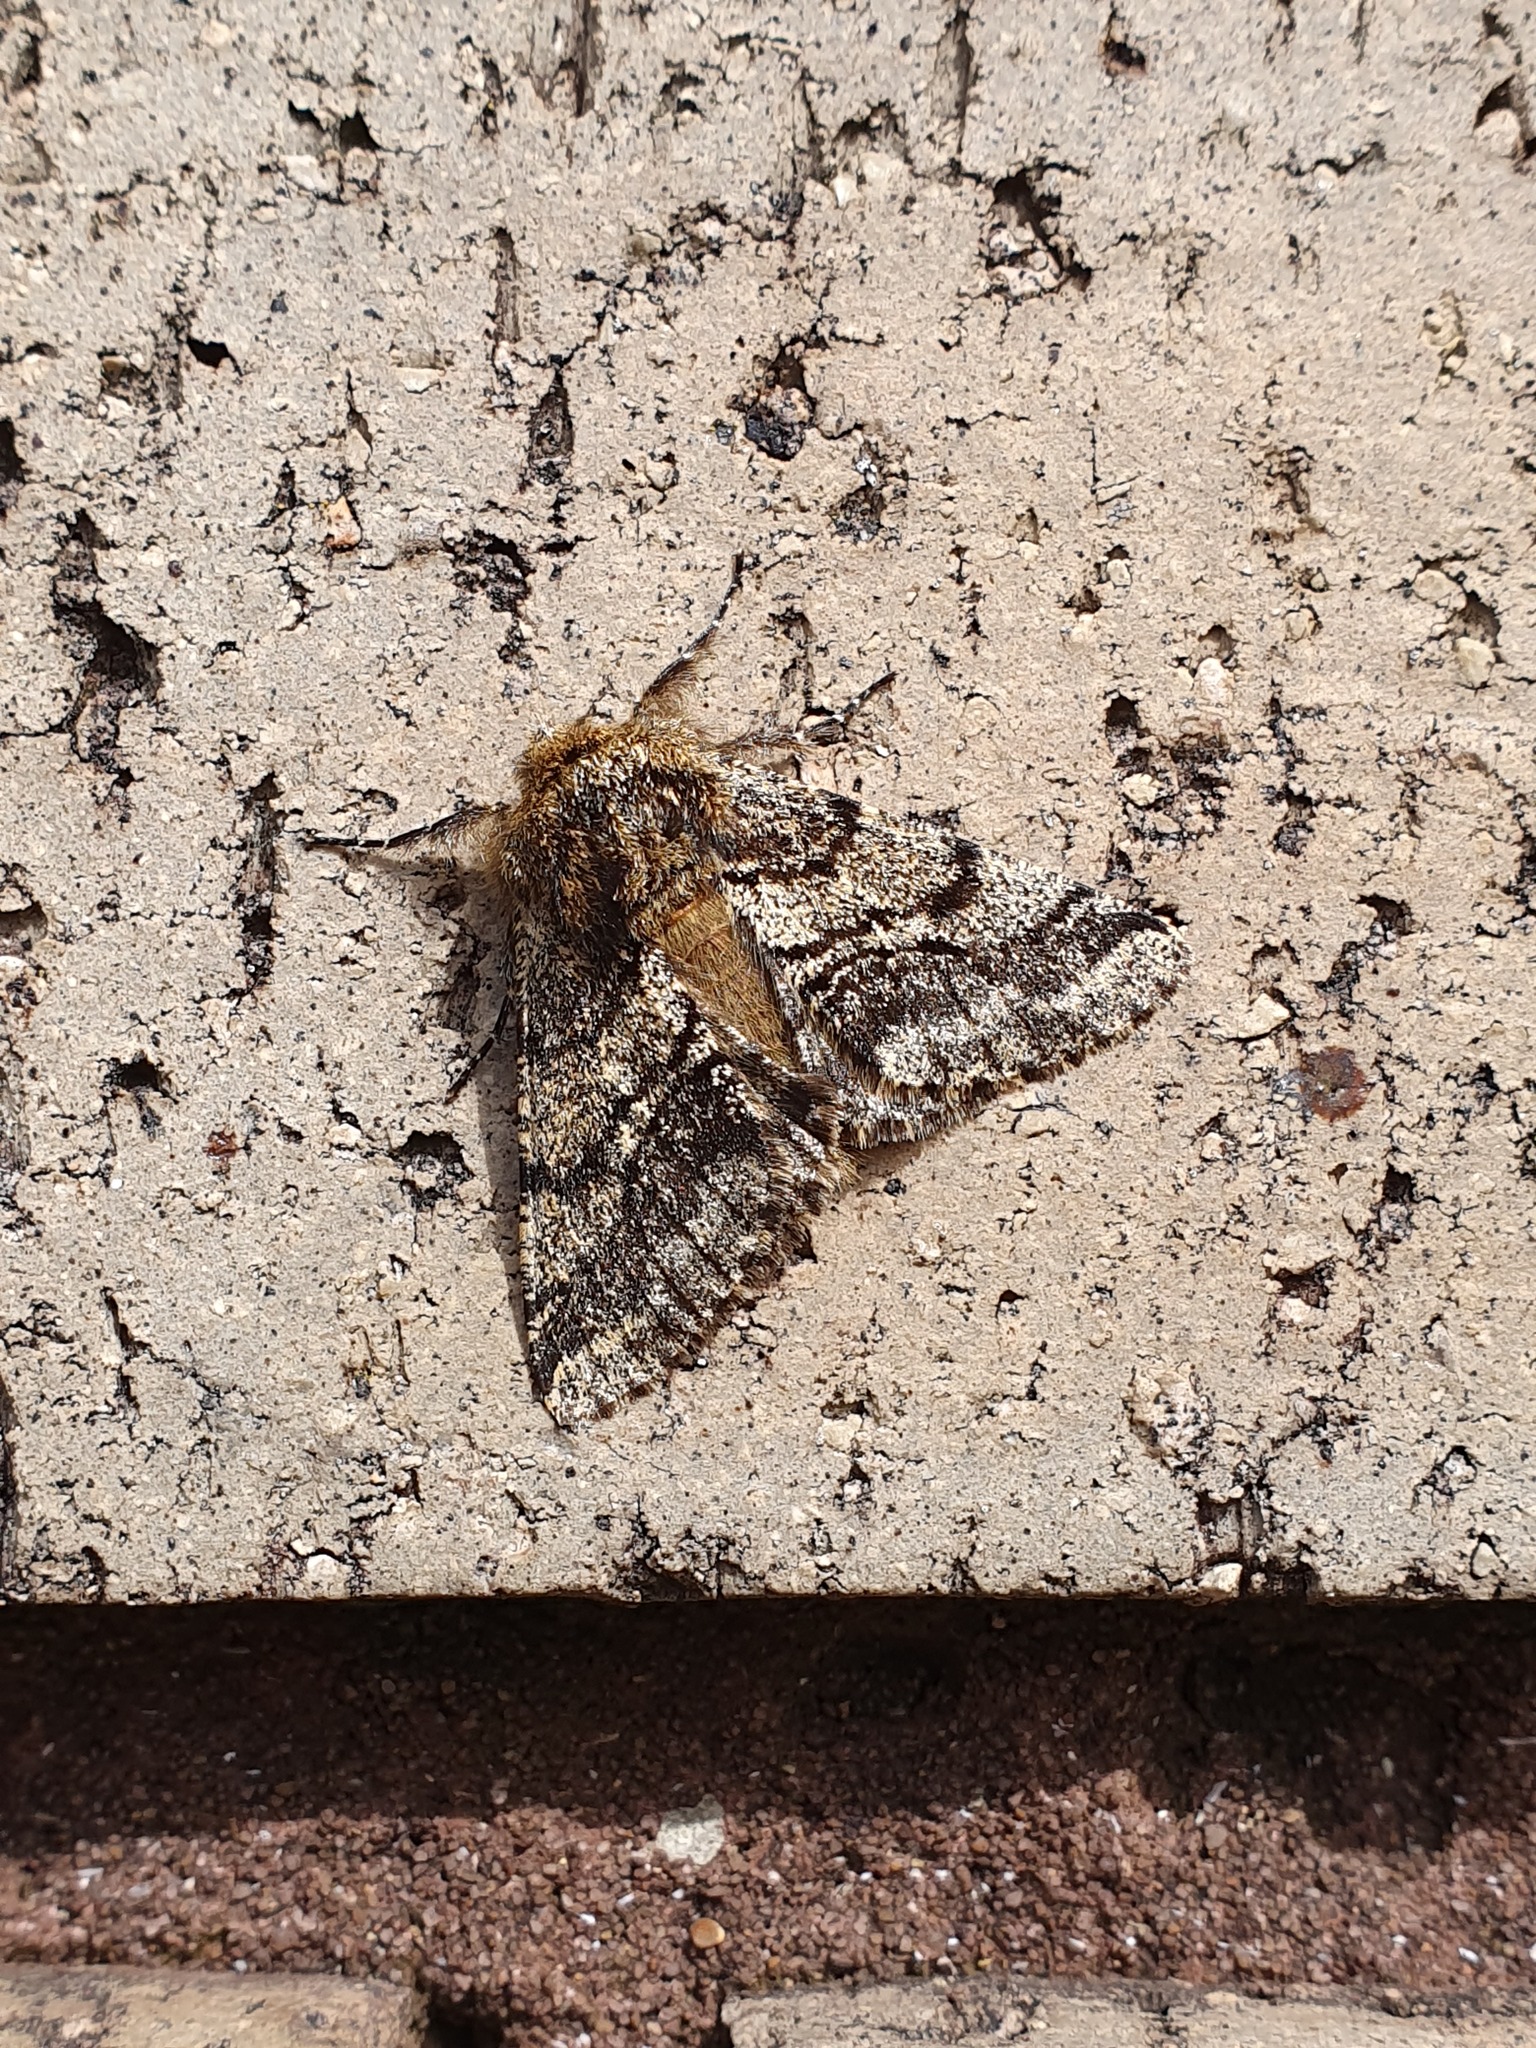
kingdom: Animalia
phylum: Arthropoda
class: Insecta
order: Lepidoptera
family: Geometridae
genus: Lycia
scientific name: Lycia hirtaria
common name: Brindled beauty
